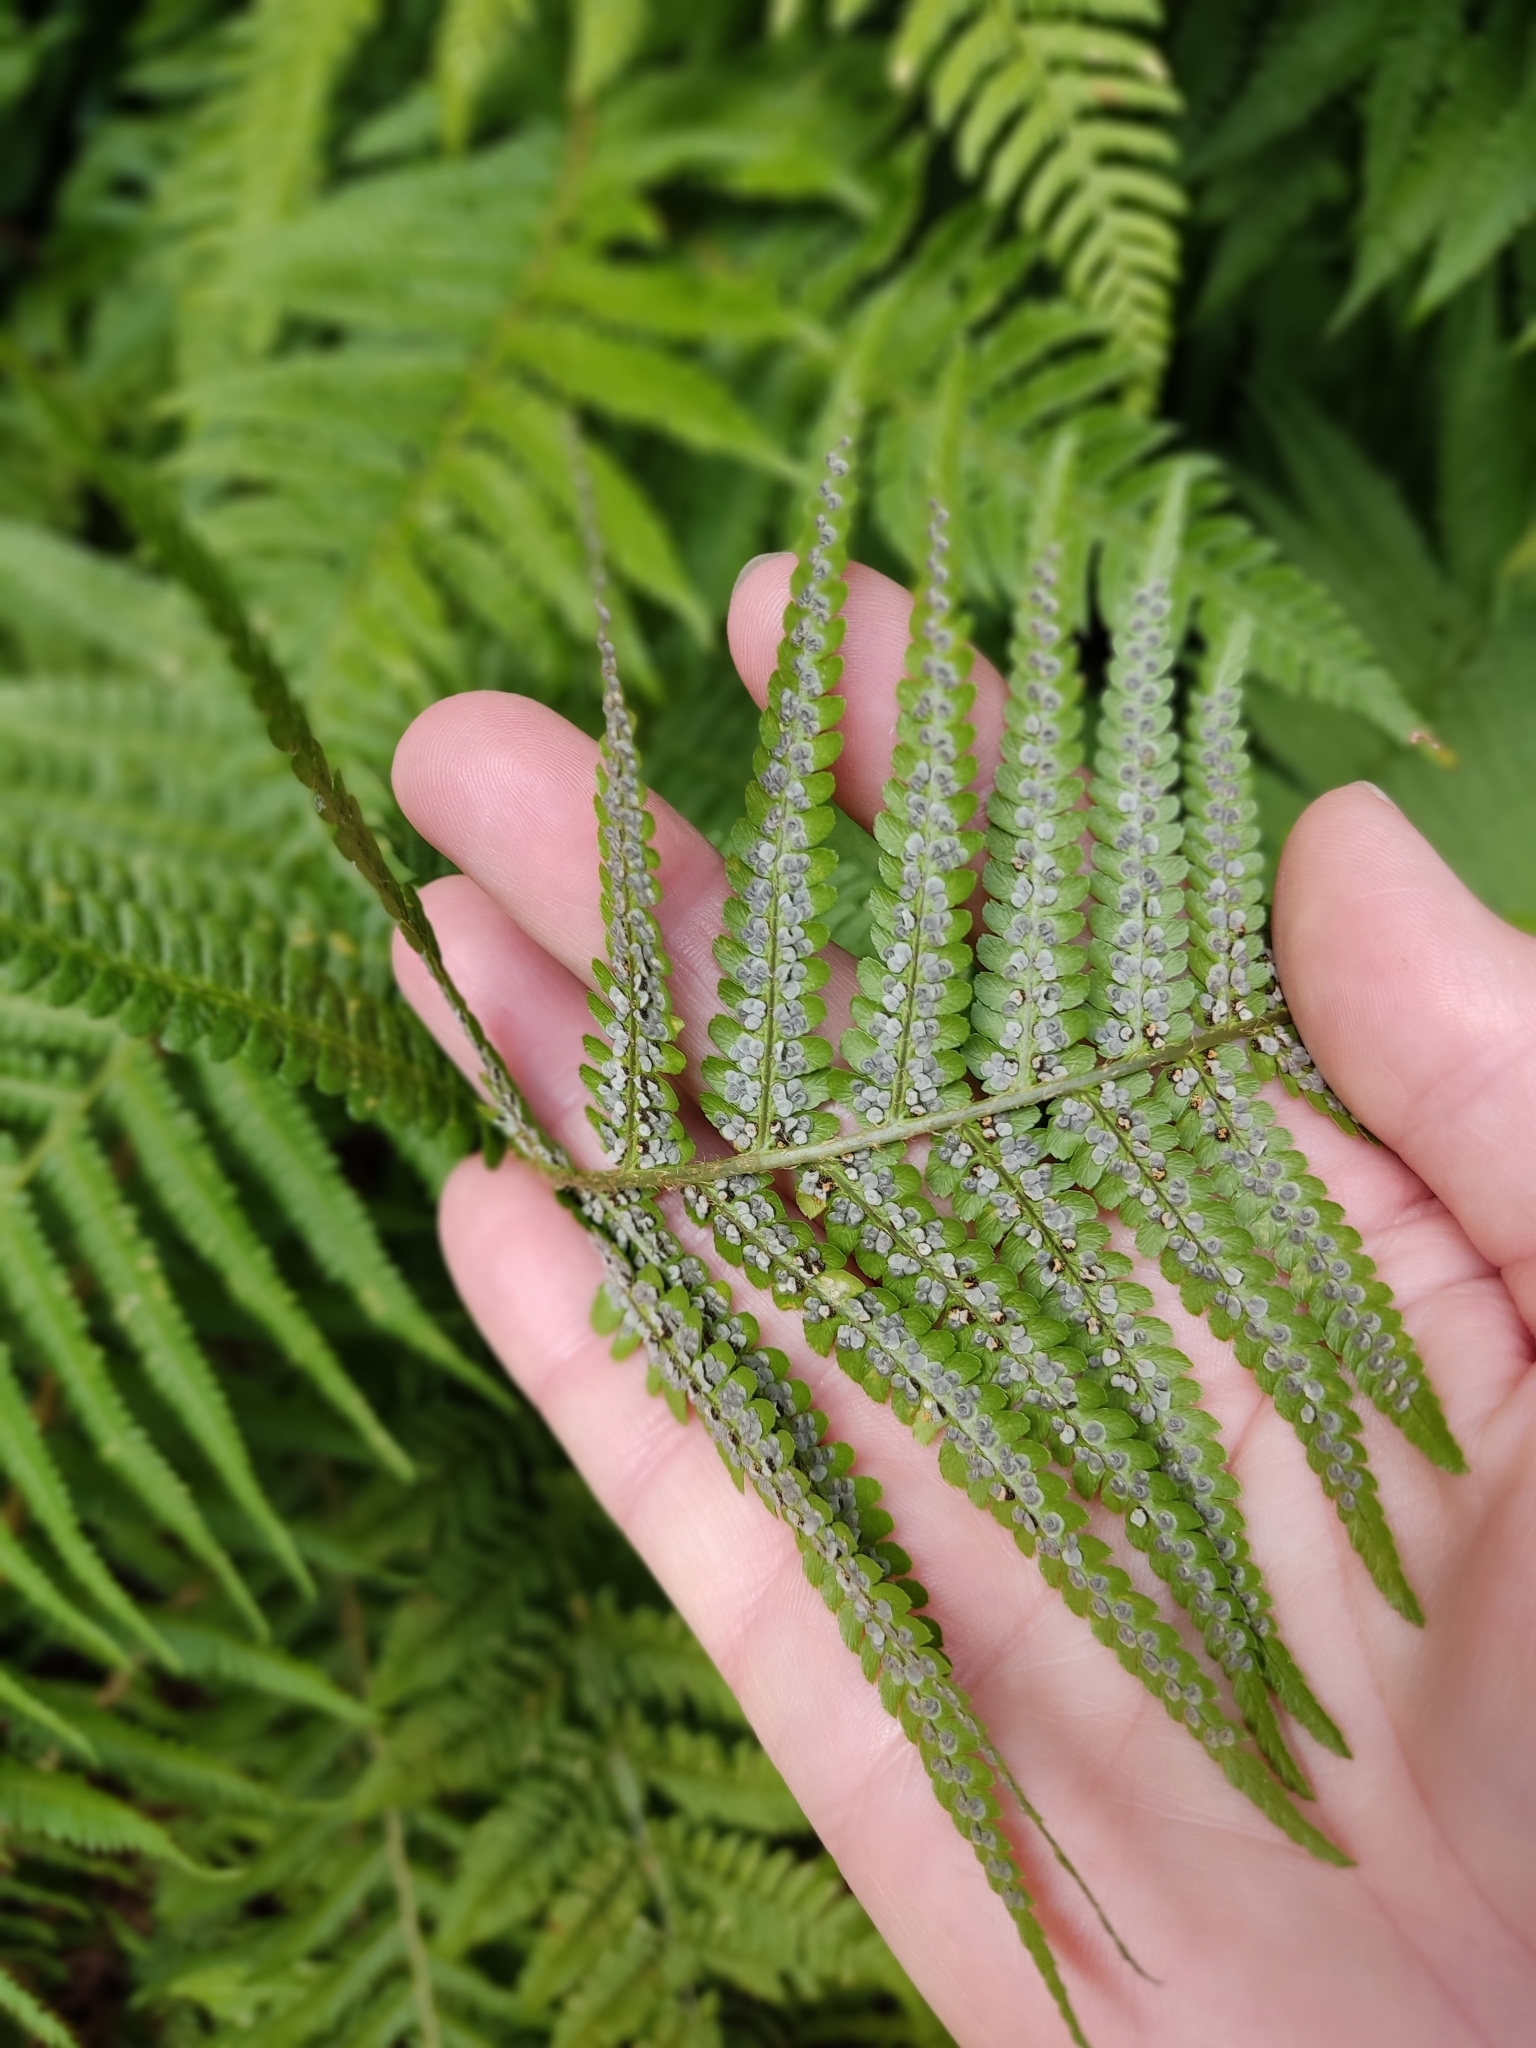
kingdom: Plantae
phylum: Tracheophyta
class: Polypodiopsida
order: Polypodiales
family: Dryopteridaceae
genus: Dryopteris
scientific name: Dryopteris filix-mas
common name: Male fern
